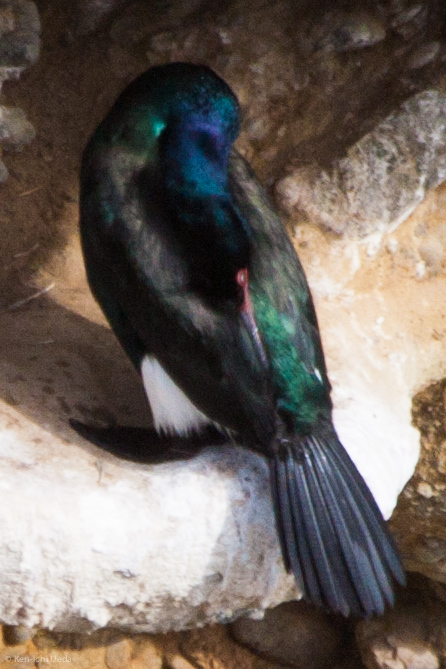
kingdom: Animalia
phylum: Chordata
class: Aves
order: Suliformes
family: Phalacrocoracidae
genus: Phalacrocorax
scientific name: Phalacrocorax pelagicus
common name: Pelagic cormorant
